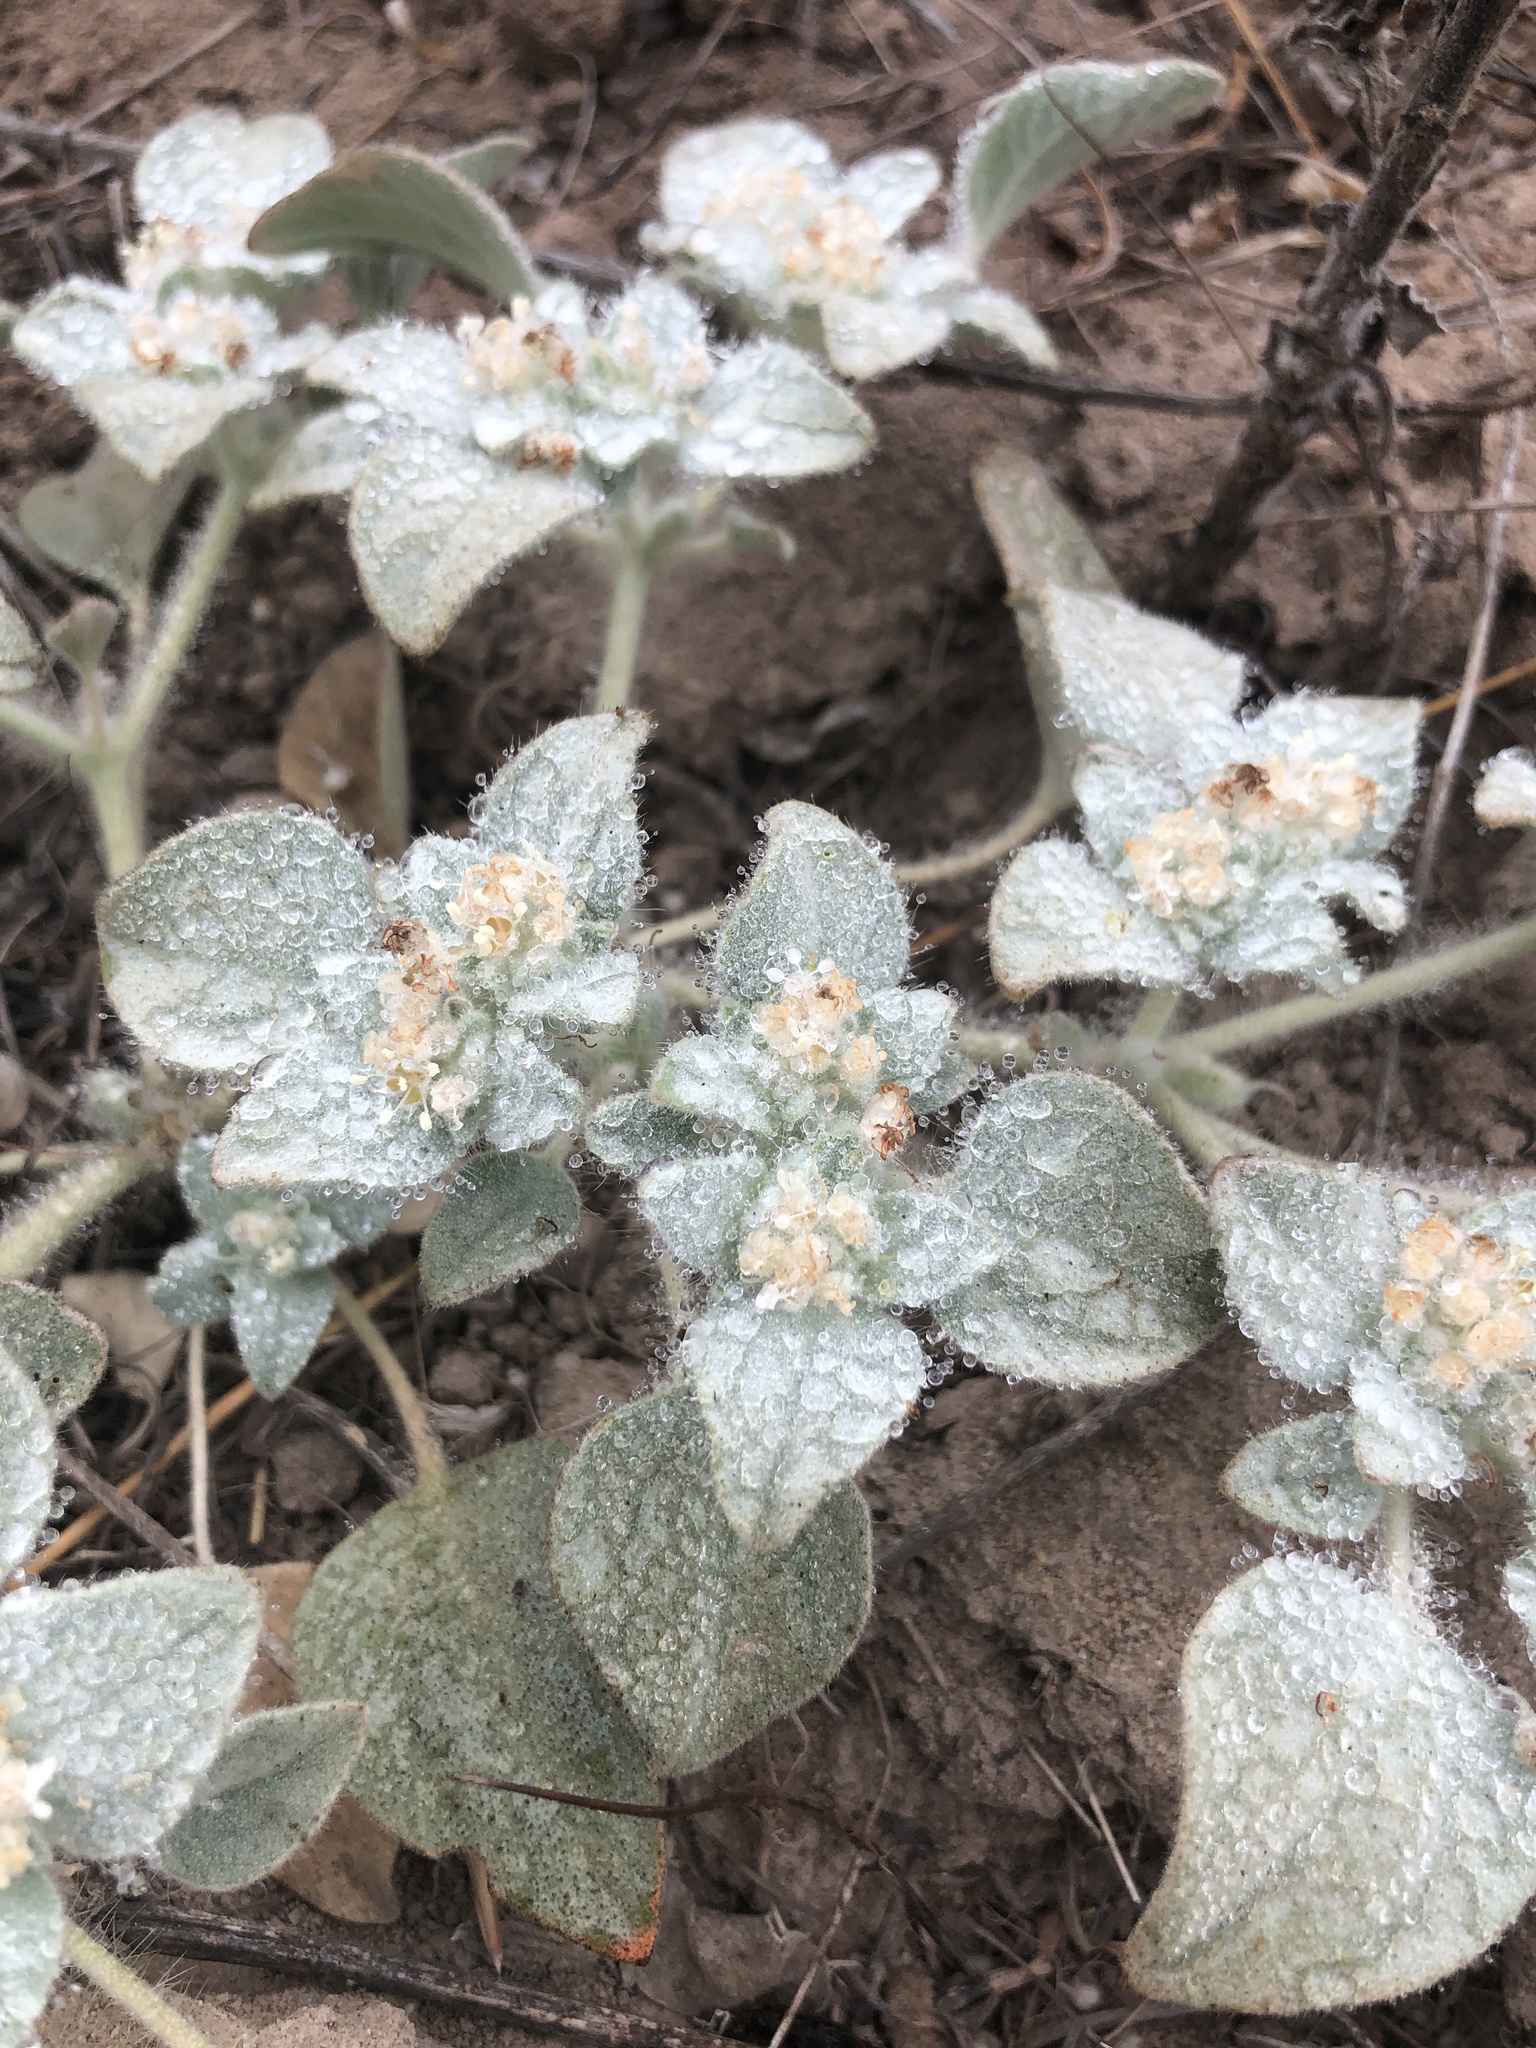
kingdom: Plantae
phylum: Tracheophyta
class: Magnoliopsida
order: Malpighiales
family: Euphorbiaceae
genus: Croton
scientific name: Croton setiger
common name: Dove weed
